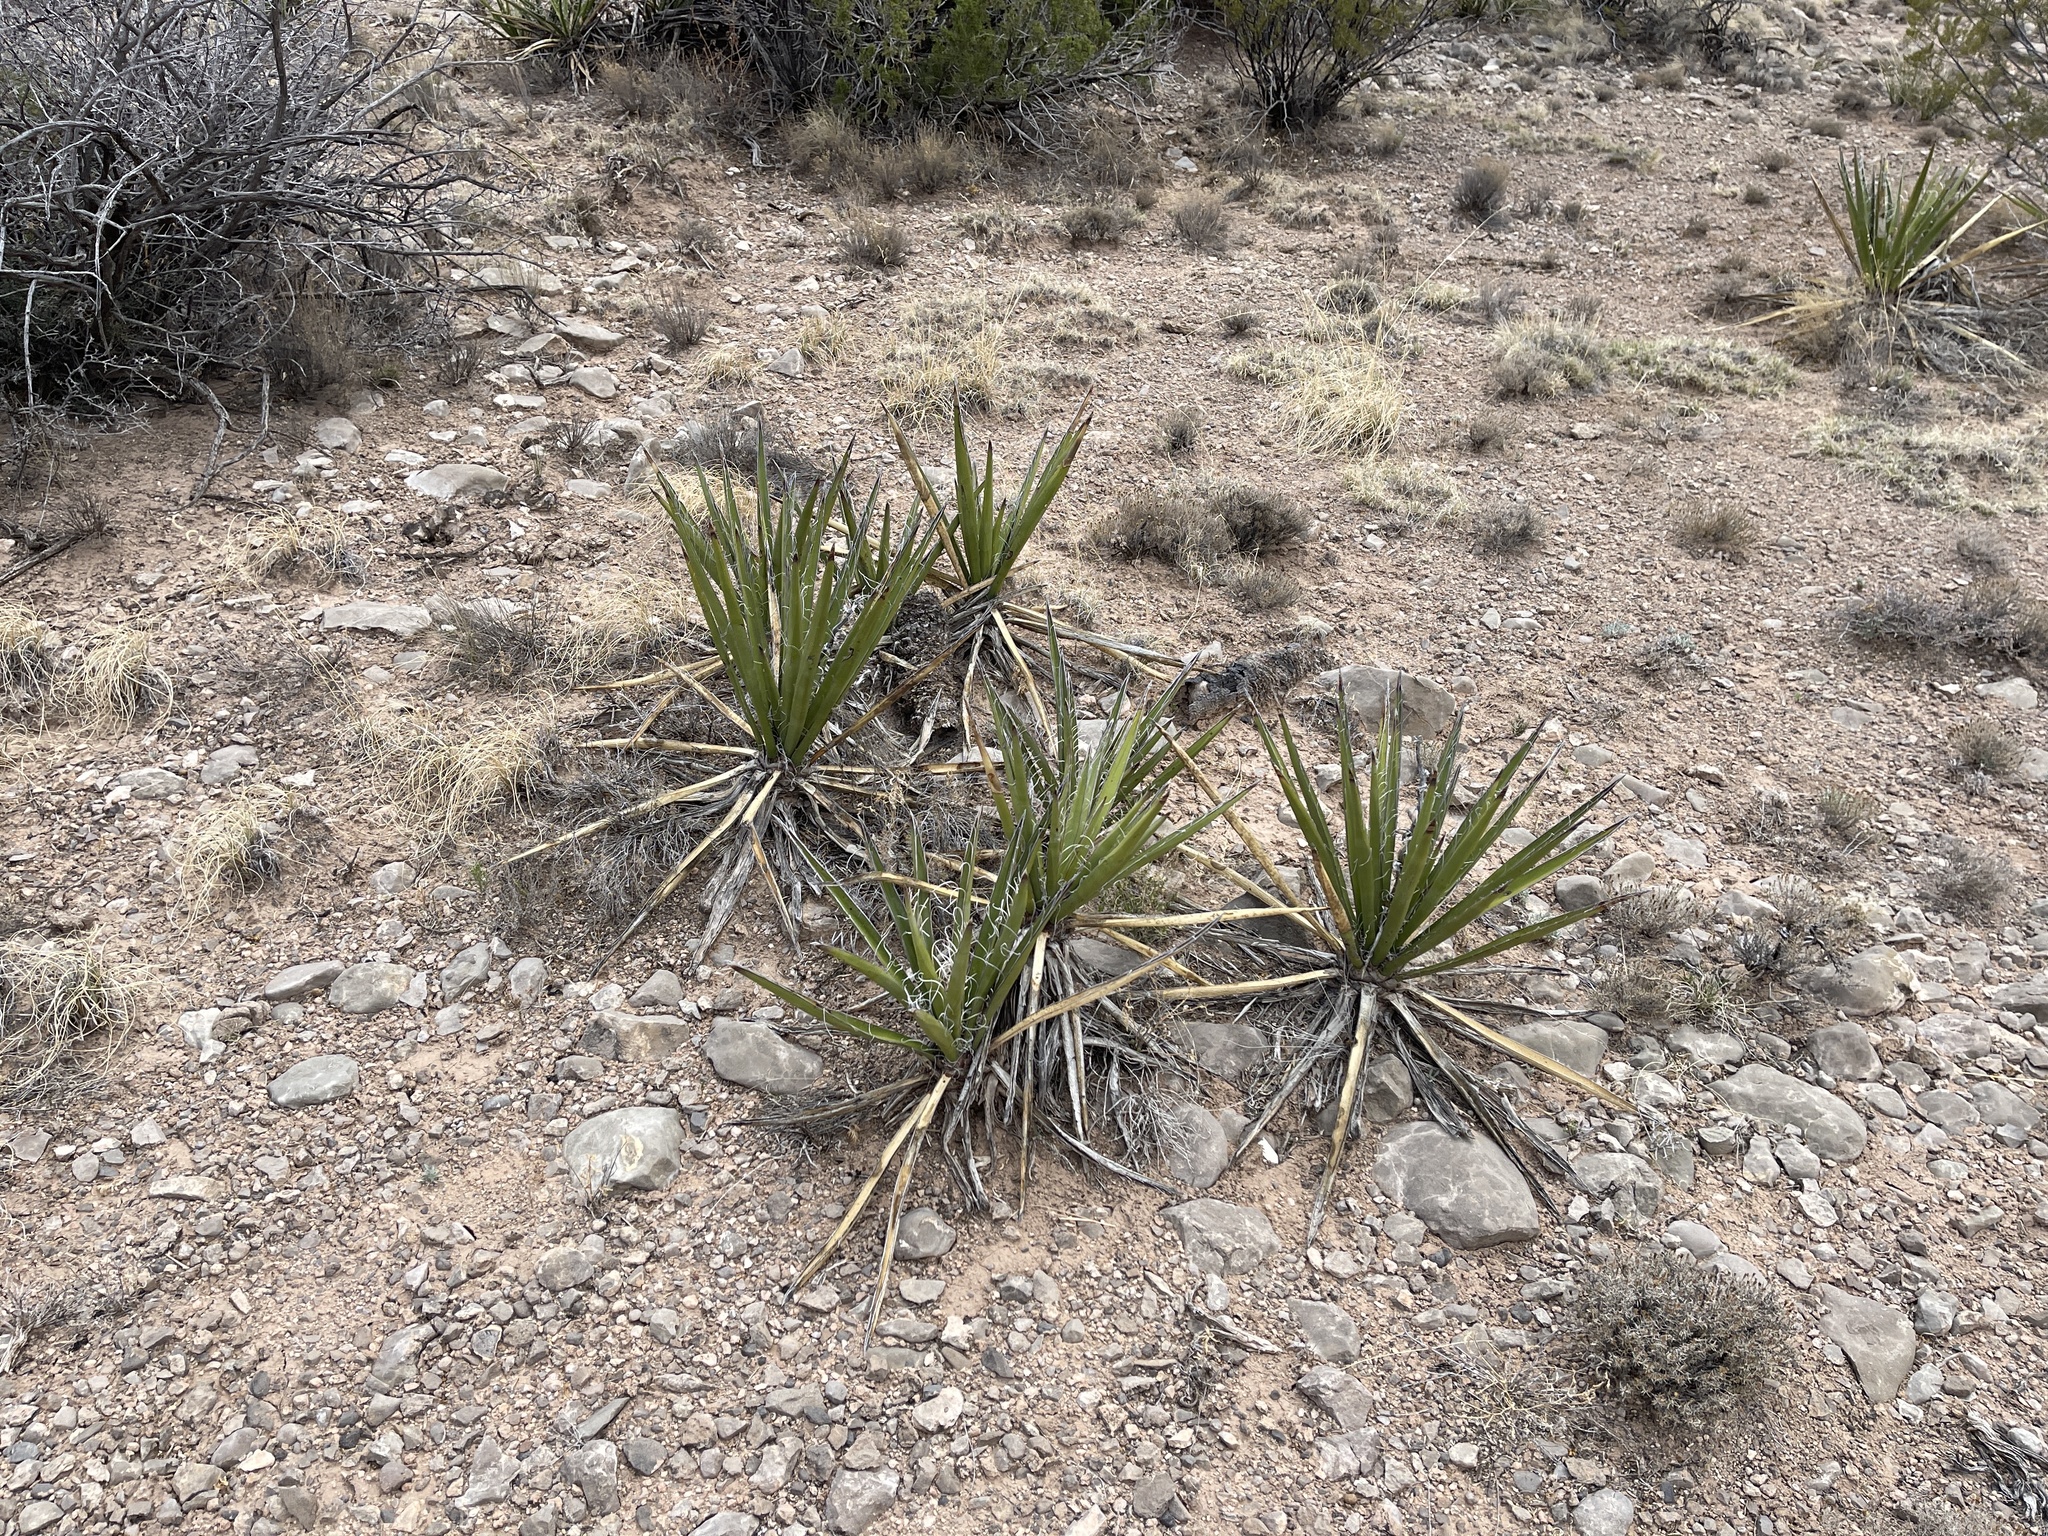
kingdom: Plantae
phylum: Tracheophyta
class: Liliopsida
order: Asparagales
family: Asparagaceae
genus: Yucca
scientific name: Yucca baccata
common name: Banana yucca
